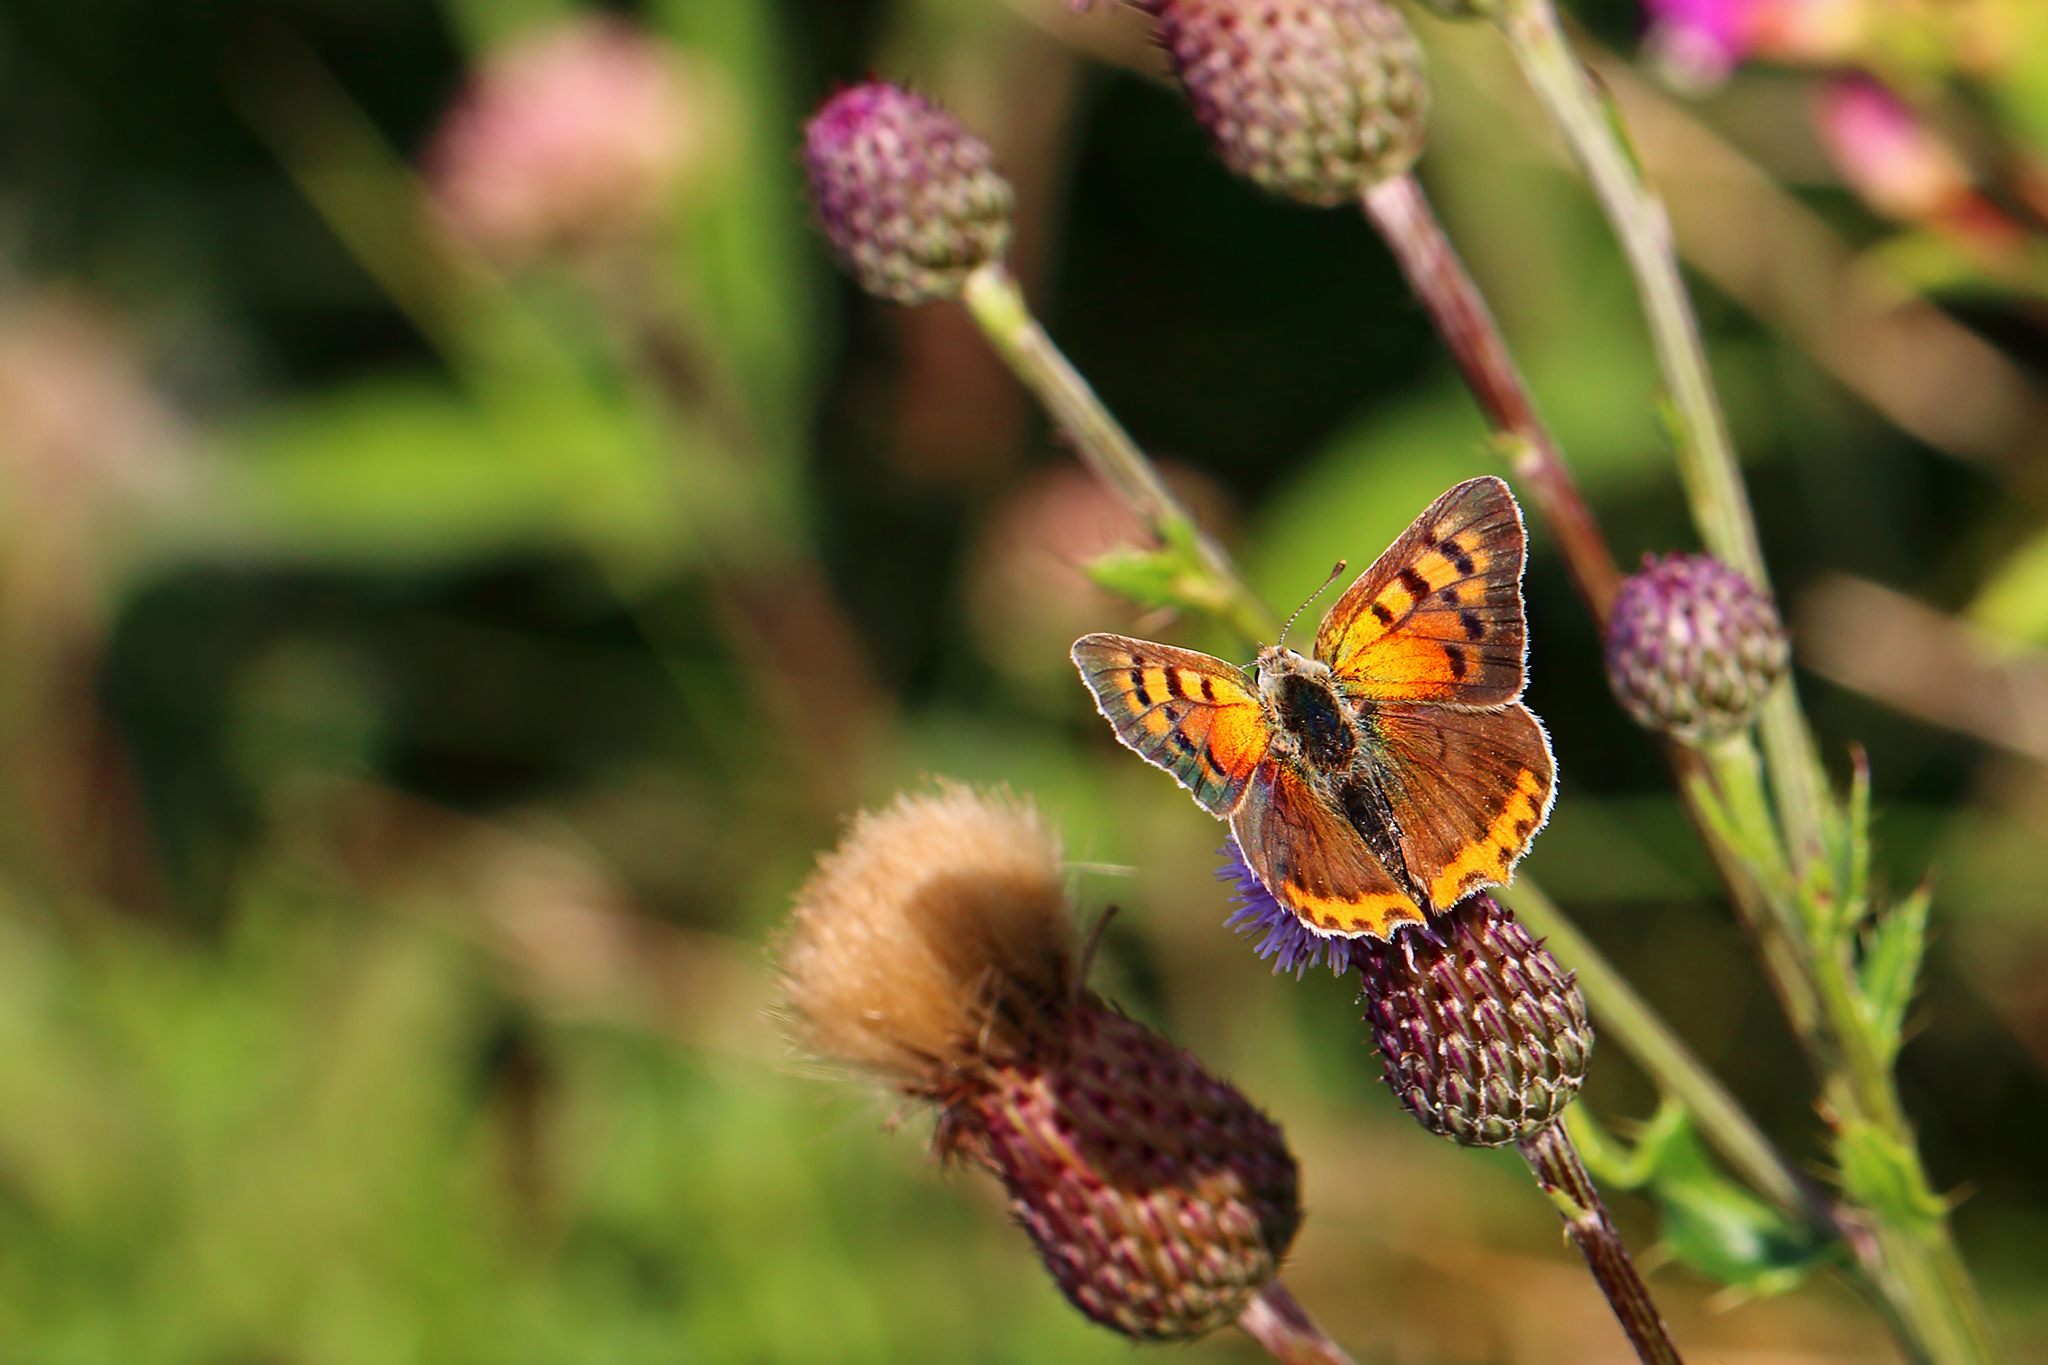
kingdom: Animalia
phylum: Arthropoda
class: Insecta
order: Lepidoptera
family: Lycaenidae
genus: Lycaena
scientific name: Lycaena phlaeas
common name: Small copper
